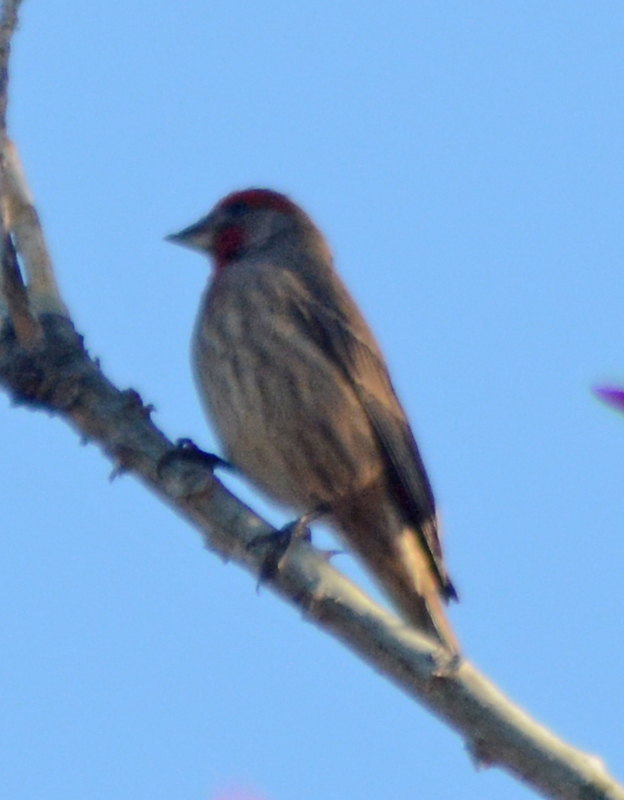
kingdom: Animalia
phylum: Chordata
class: Aves
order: Passeriformes
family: Fringillidae
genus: Haemorhous
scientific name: Haemorhous mexicanus
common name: House finch
